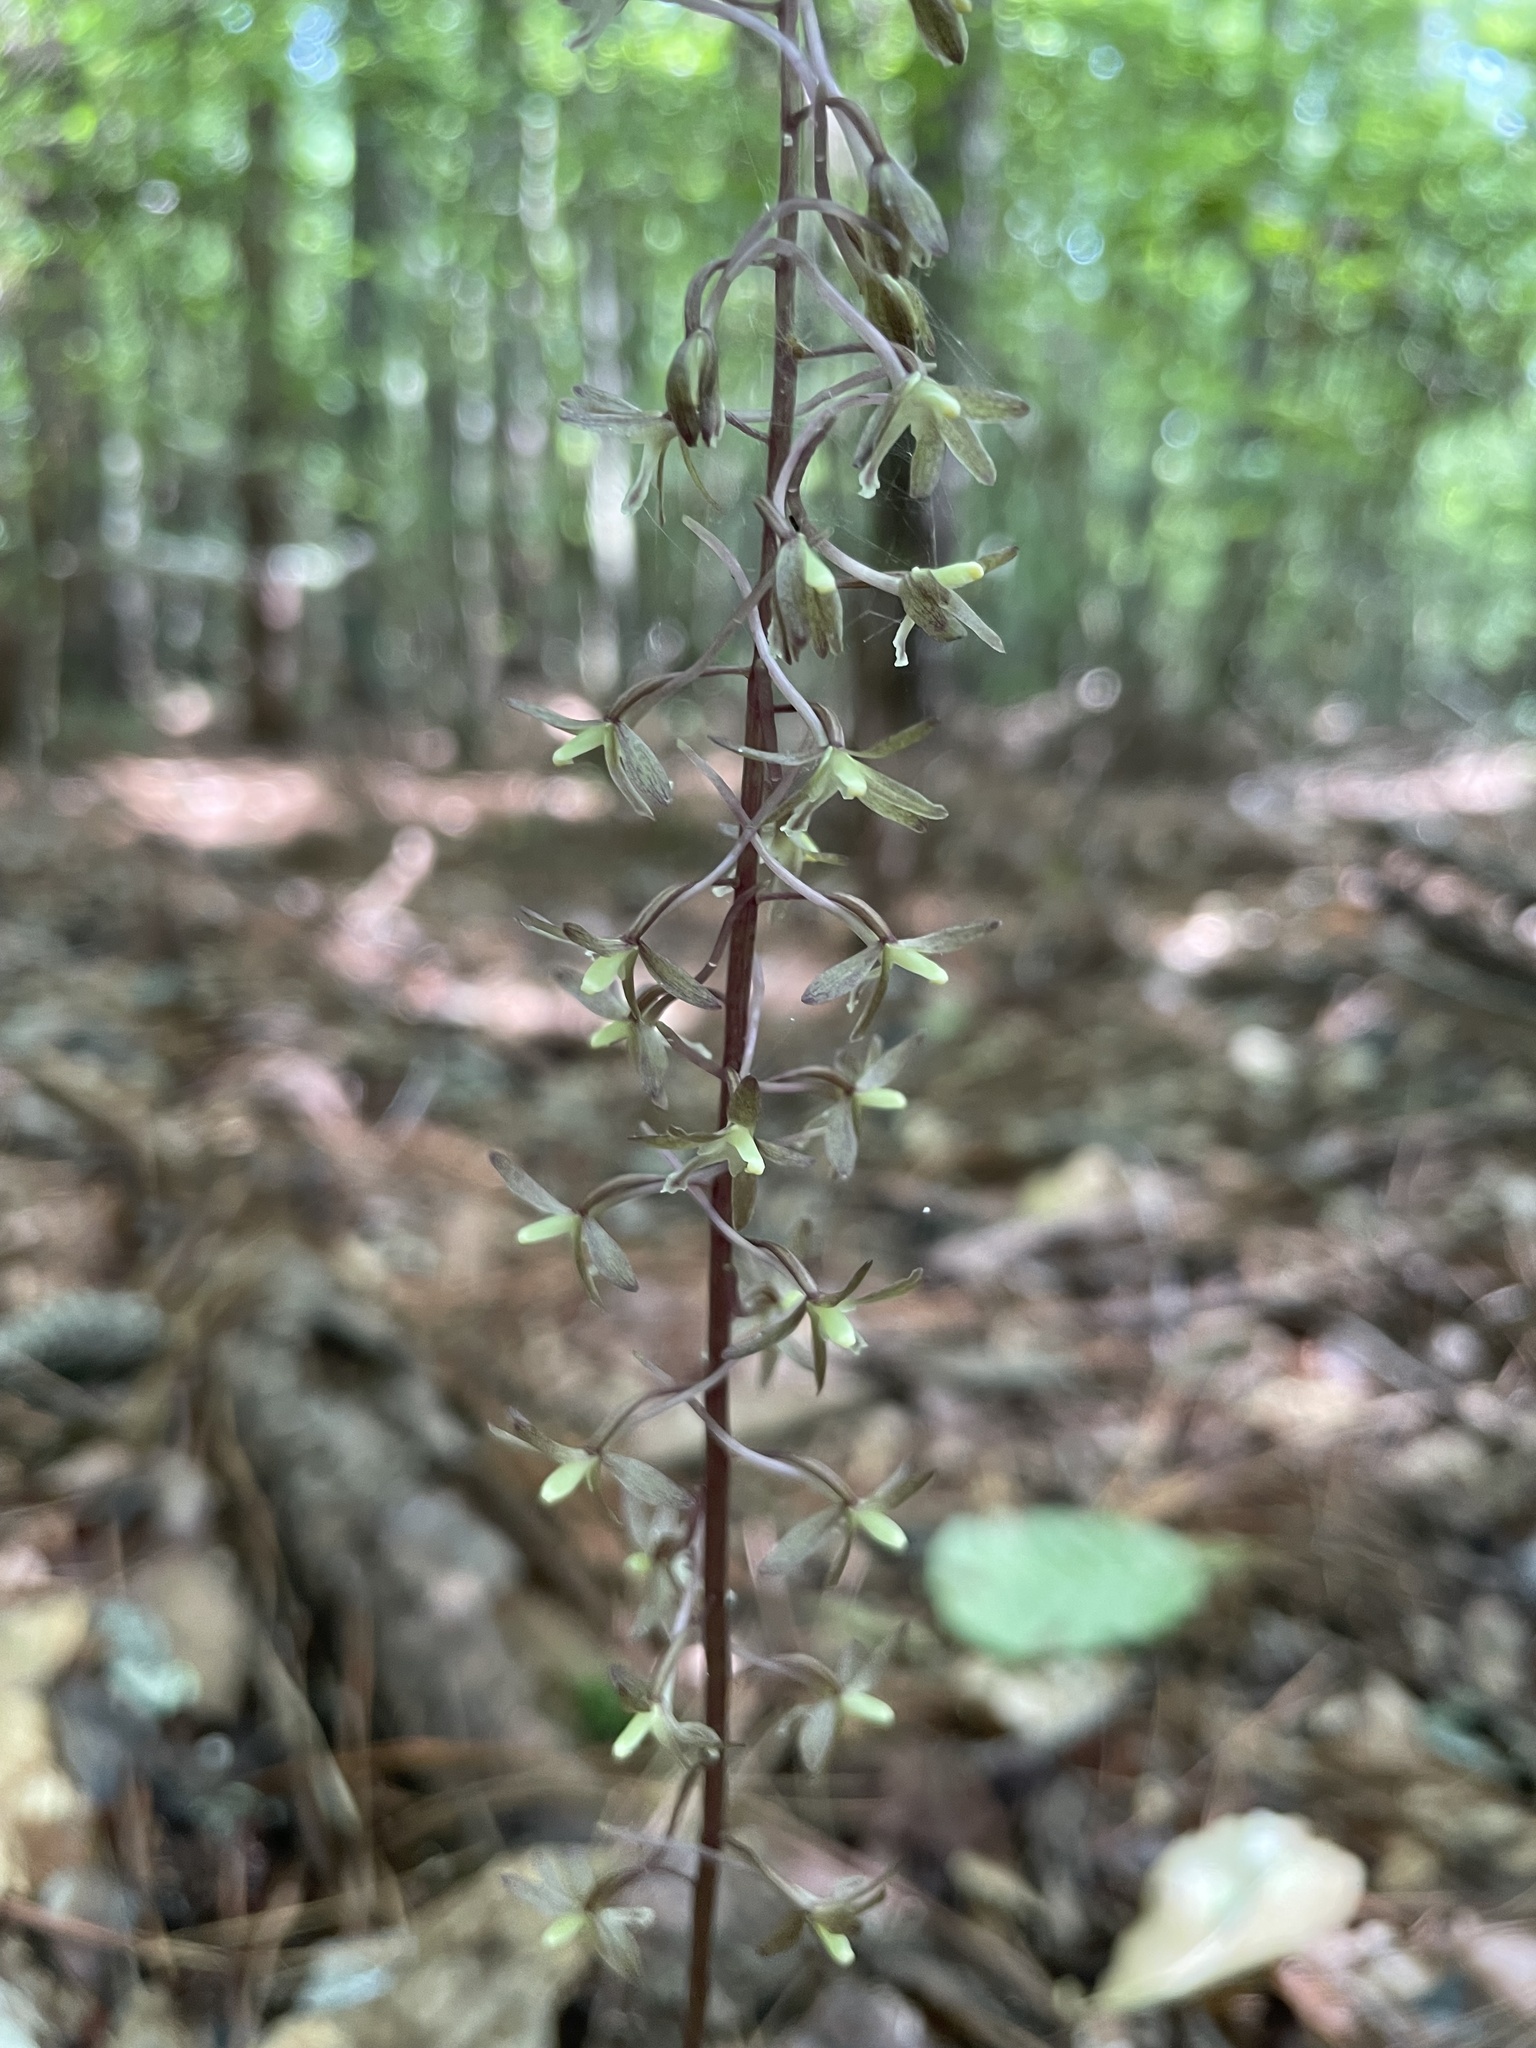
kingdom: Plantae
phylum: Tracheophyta
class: Liliopsida
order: Asparagales
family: Orchidaceae
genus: Tipularia
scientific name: Tipularia discolor
